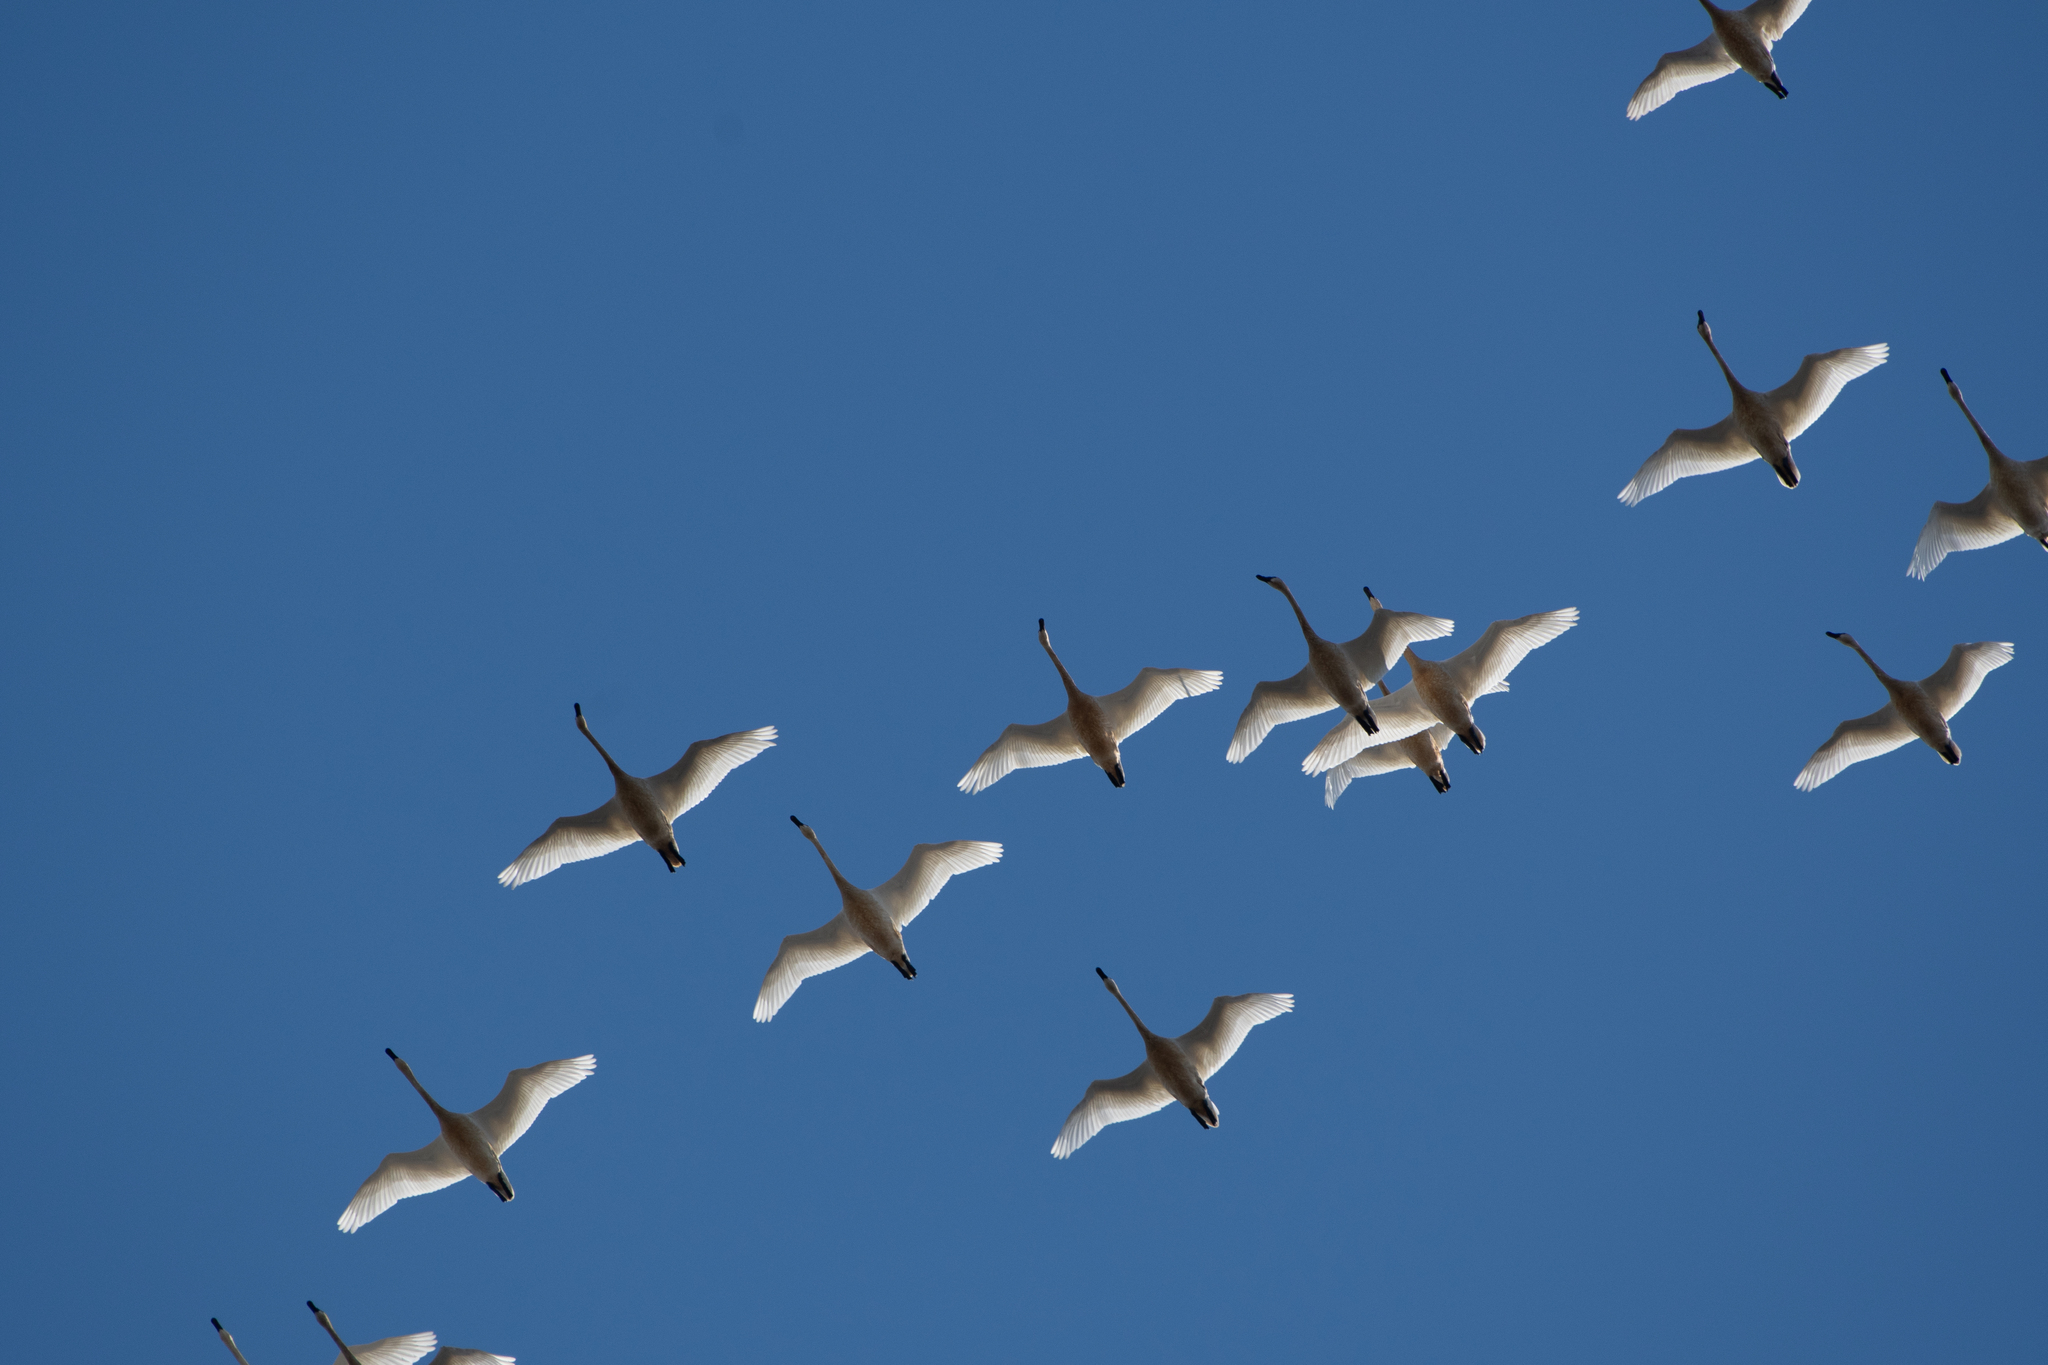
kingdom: Animalia
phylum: Chordata
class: Aves
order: Anseriformes
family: Anatidae
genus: Cygnus
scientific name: Cygnus columbianus
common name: Tundra swan
